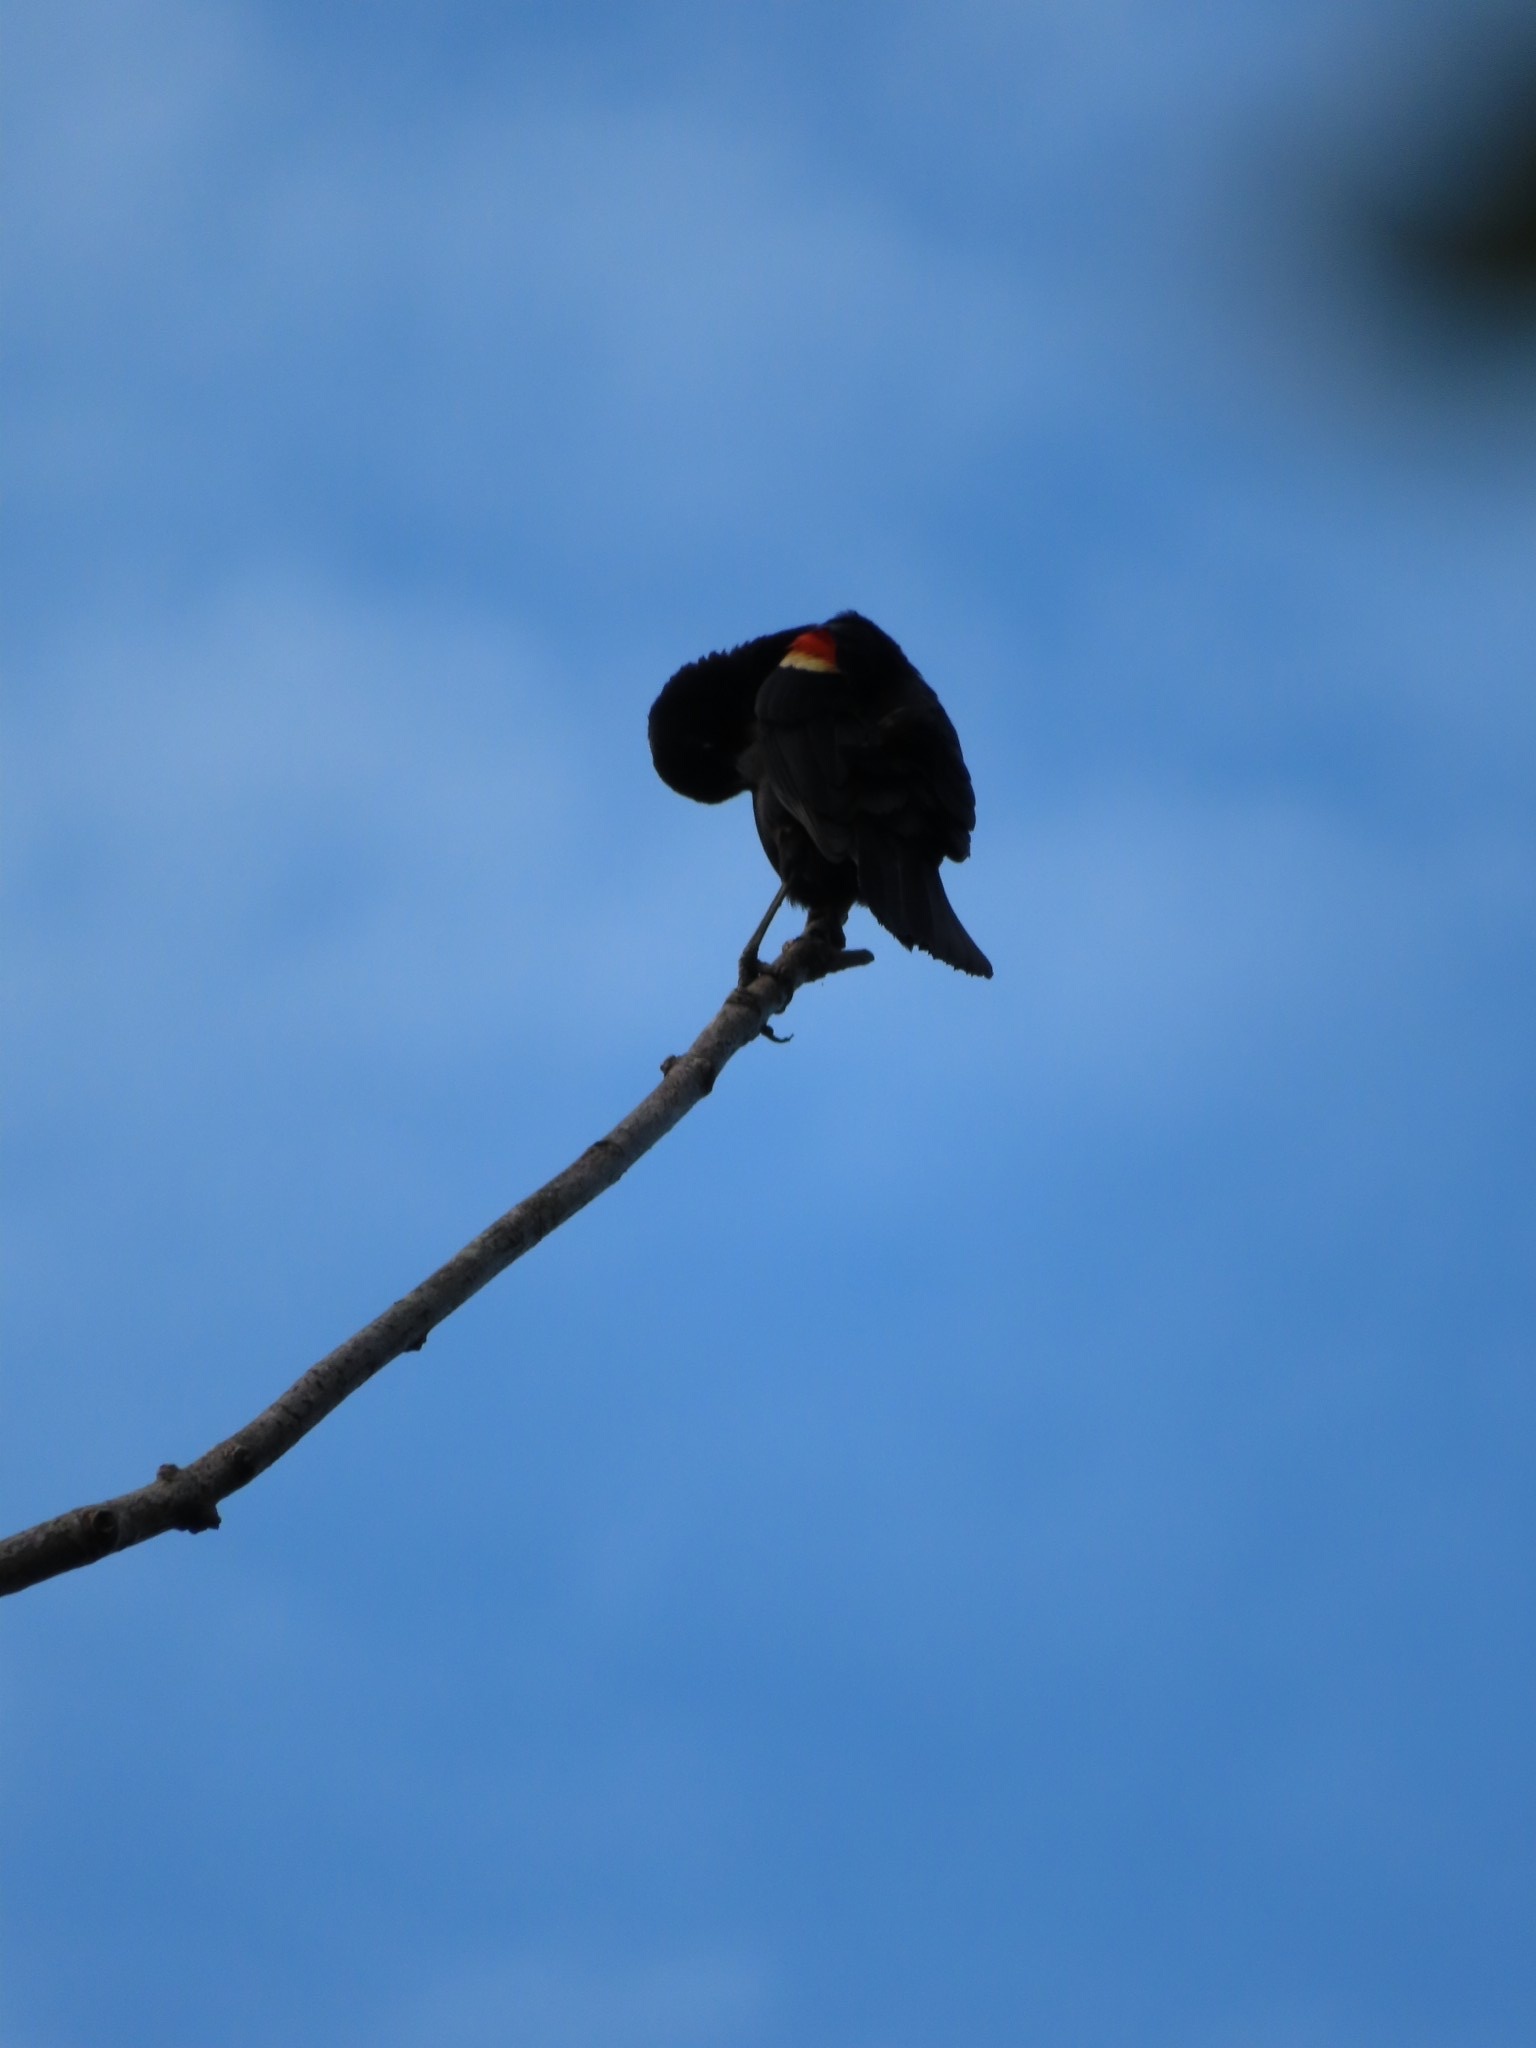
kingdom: Animalia
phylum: Chordata
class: Aves
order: Passeriformes
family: Icteridae
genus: Agelaius
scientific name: Agelaius phoeniceus
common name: Red-winged blackbird
